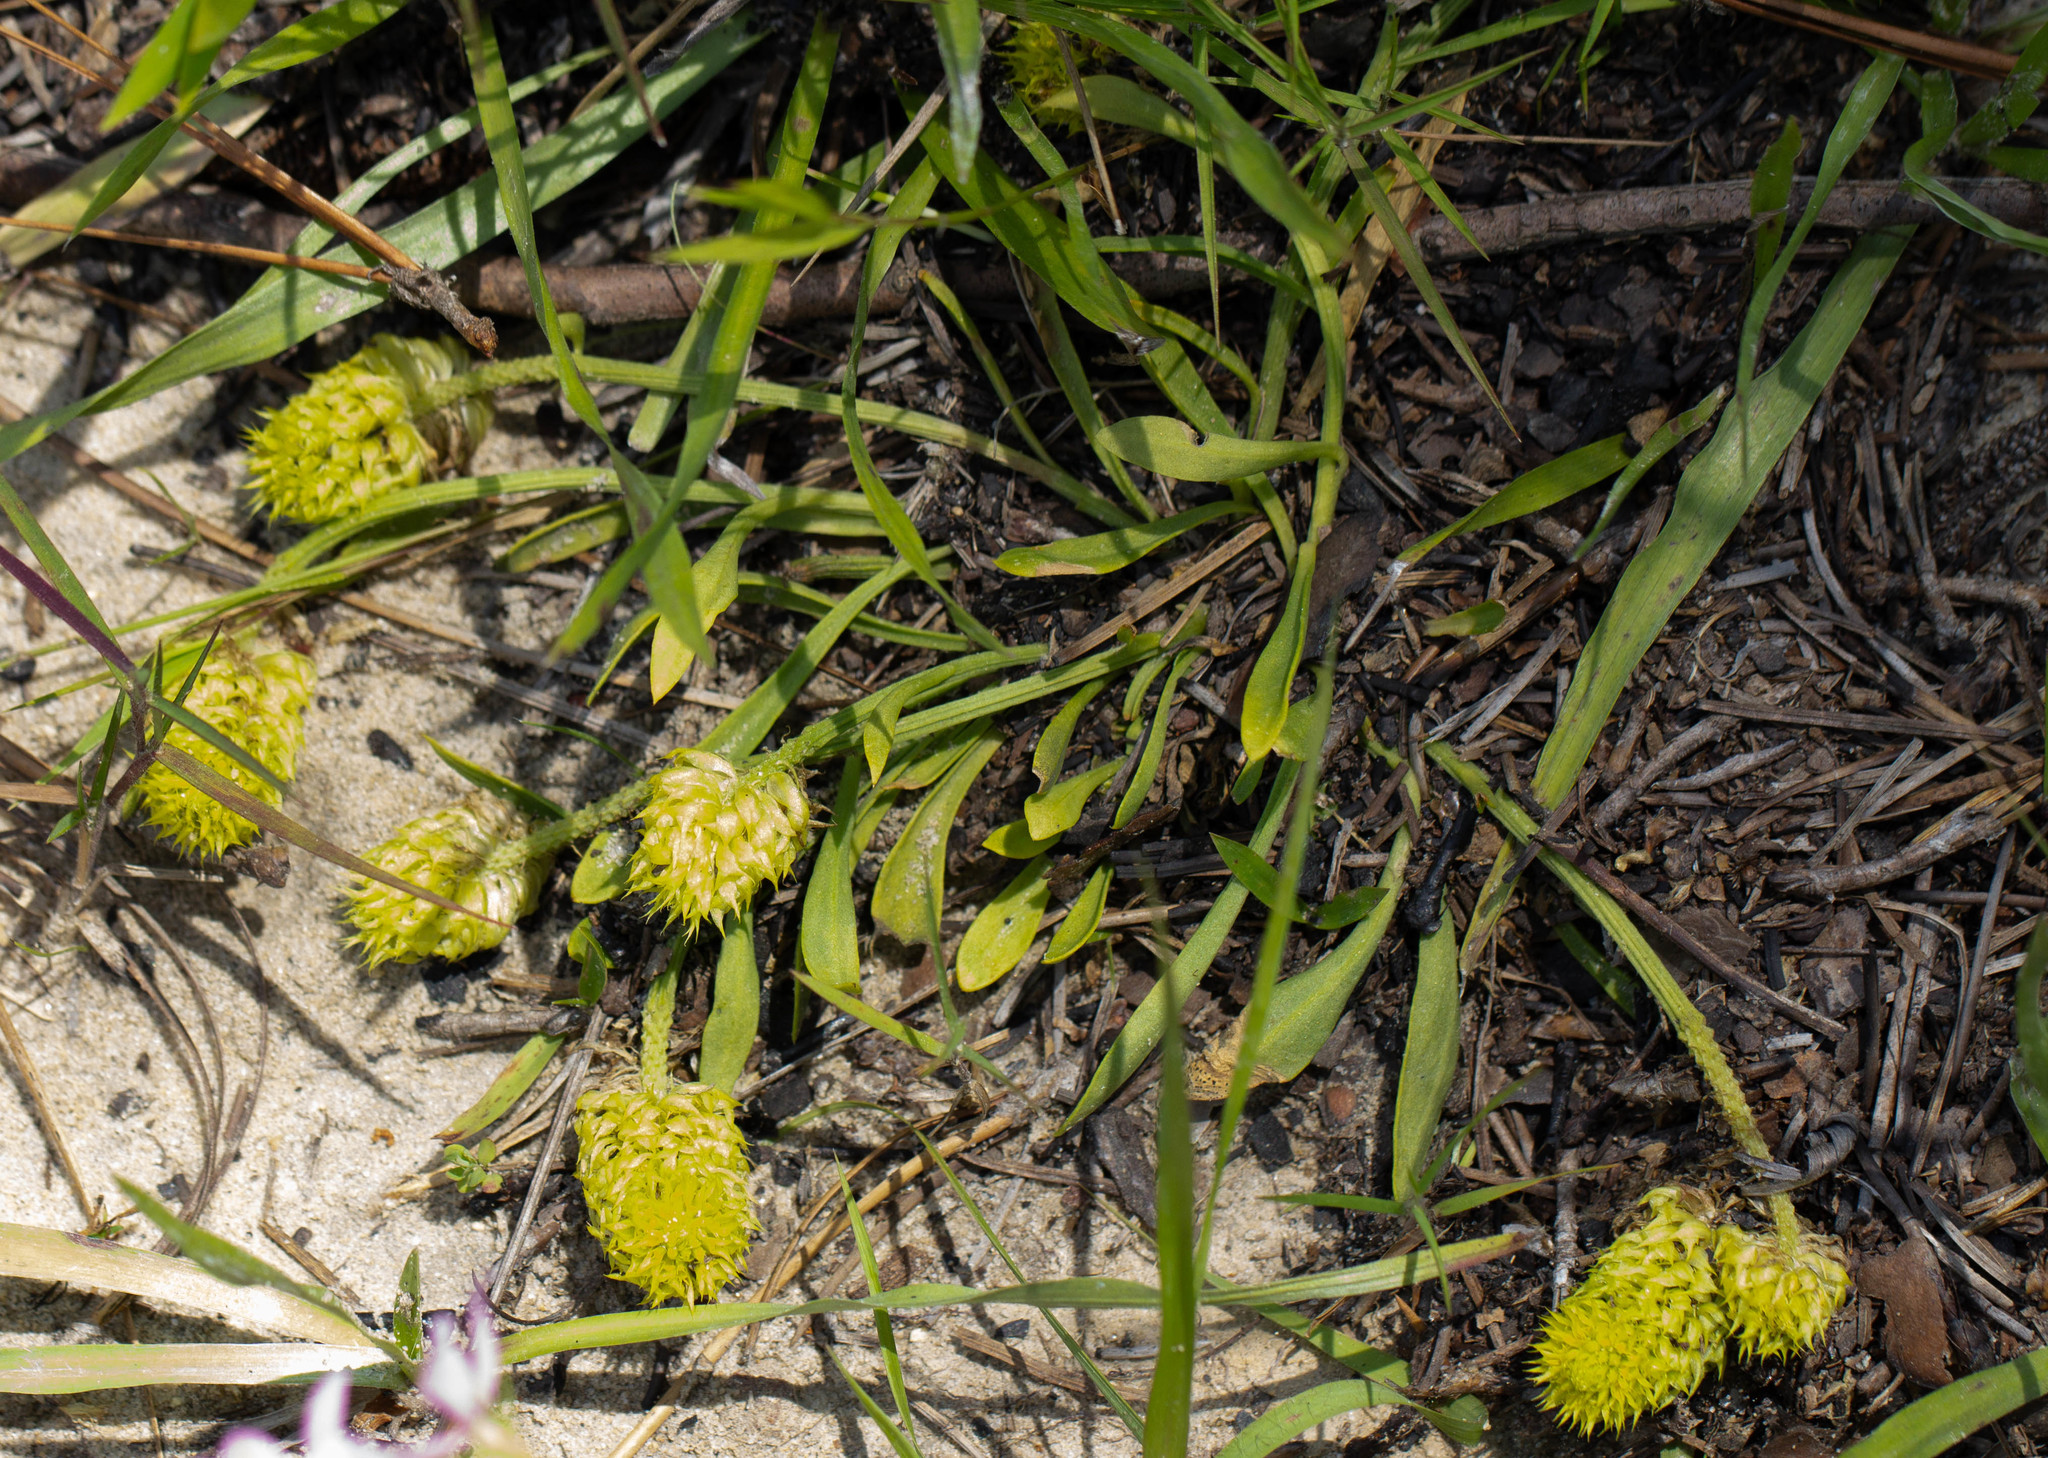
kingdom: Plantae
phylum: Tracheophyta
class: Magnoliopsida
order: Fabales
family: Polygalaceae
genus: Polygala
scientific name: Polygala nana
